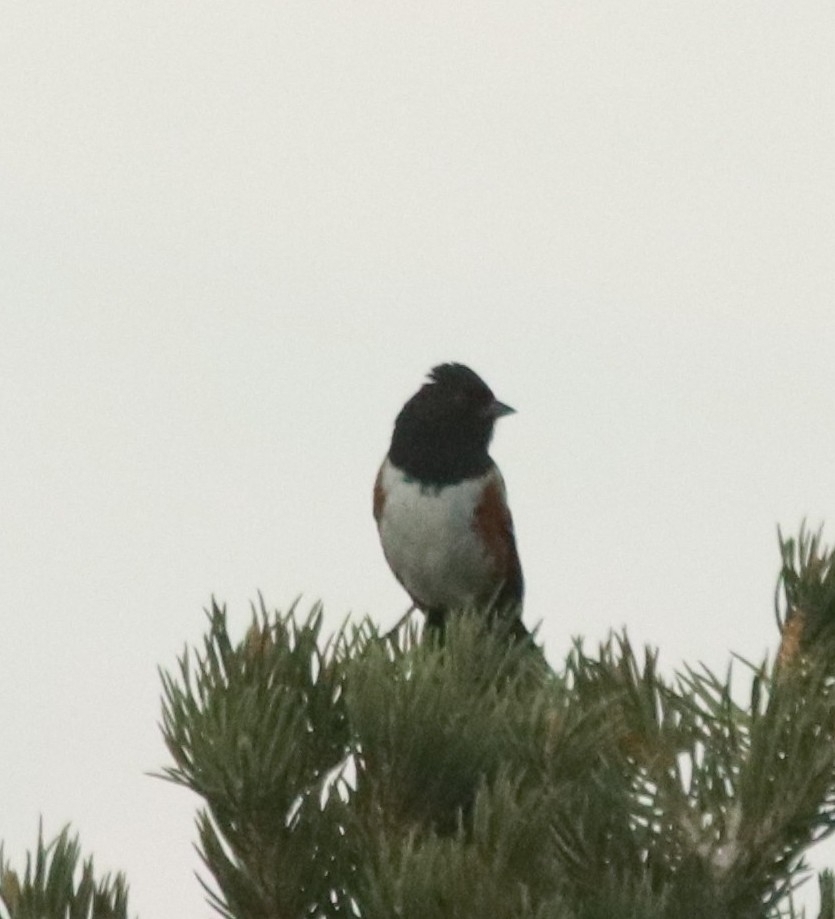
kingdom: Animalia
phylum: Chordata
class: Aves
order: Passeriformes
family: Passerellidae
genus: Pipilo
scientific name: Pipilo maculatus
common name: Spotted towhee
